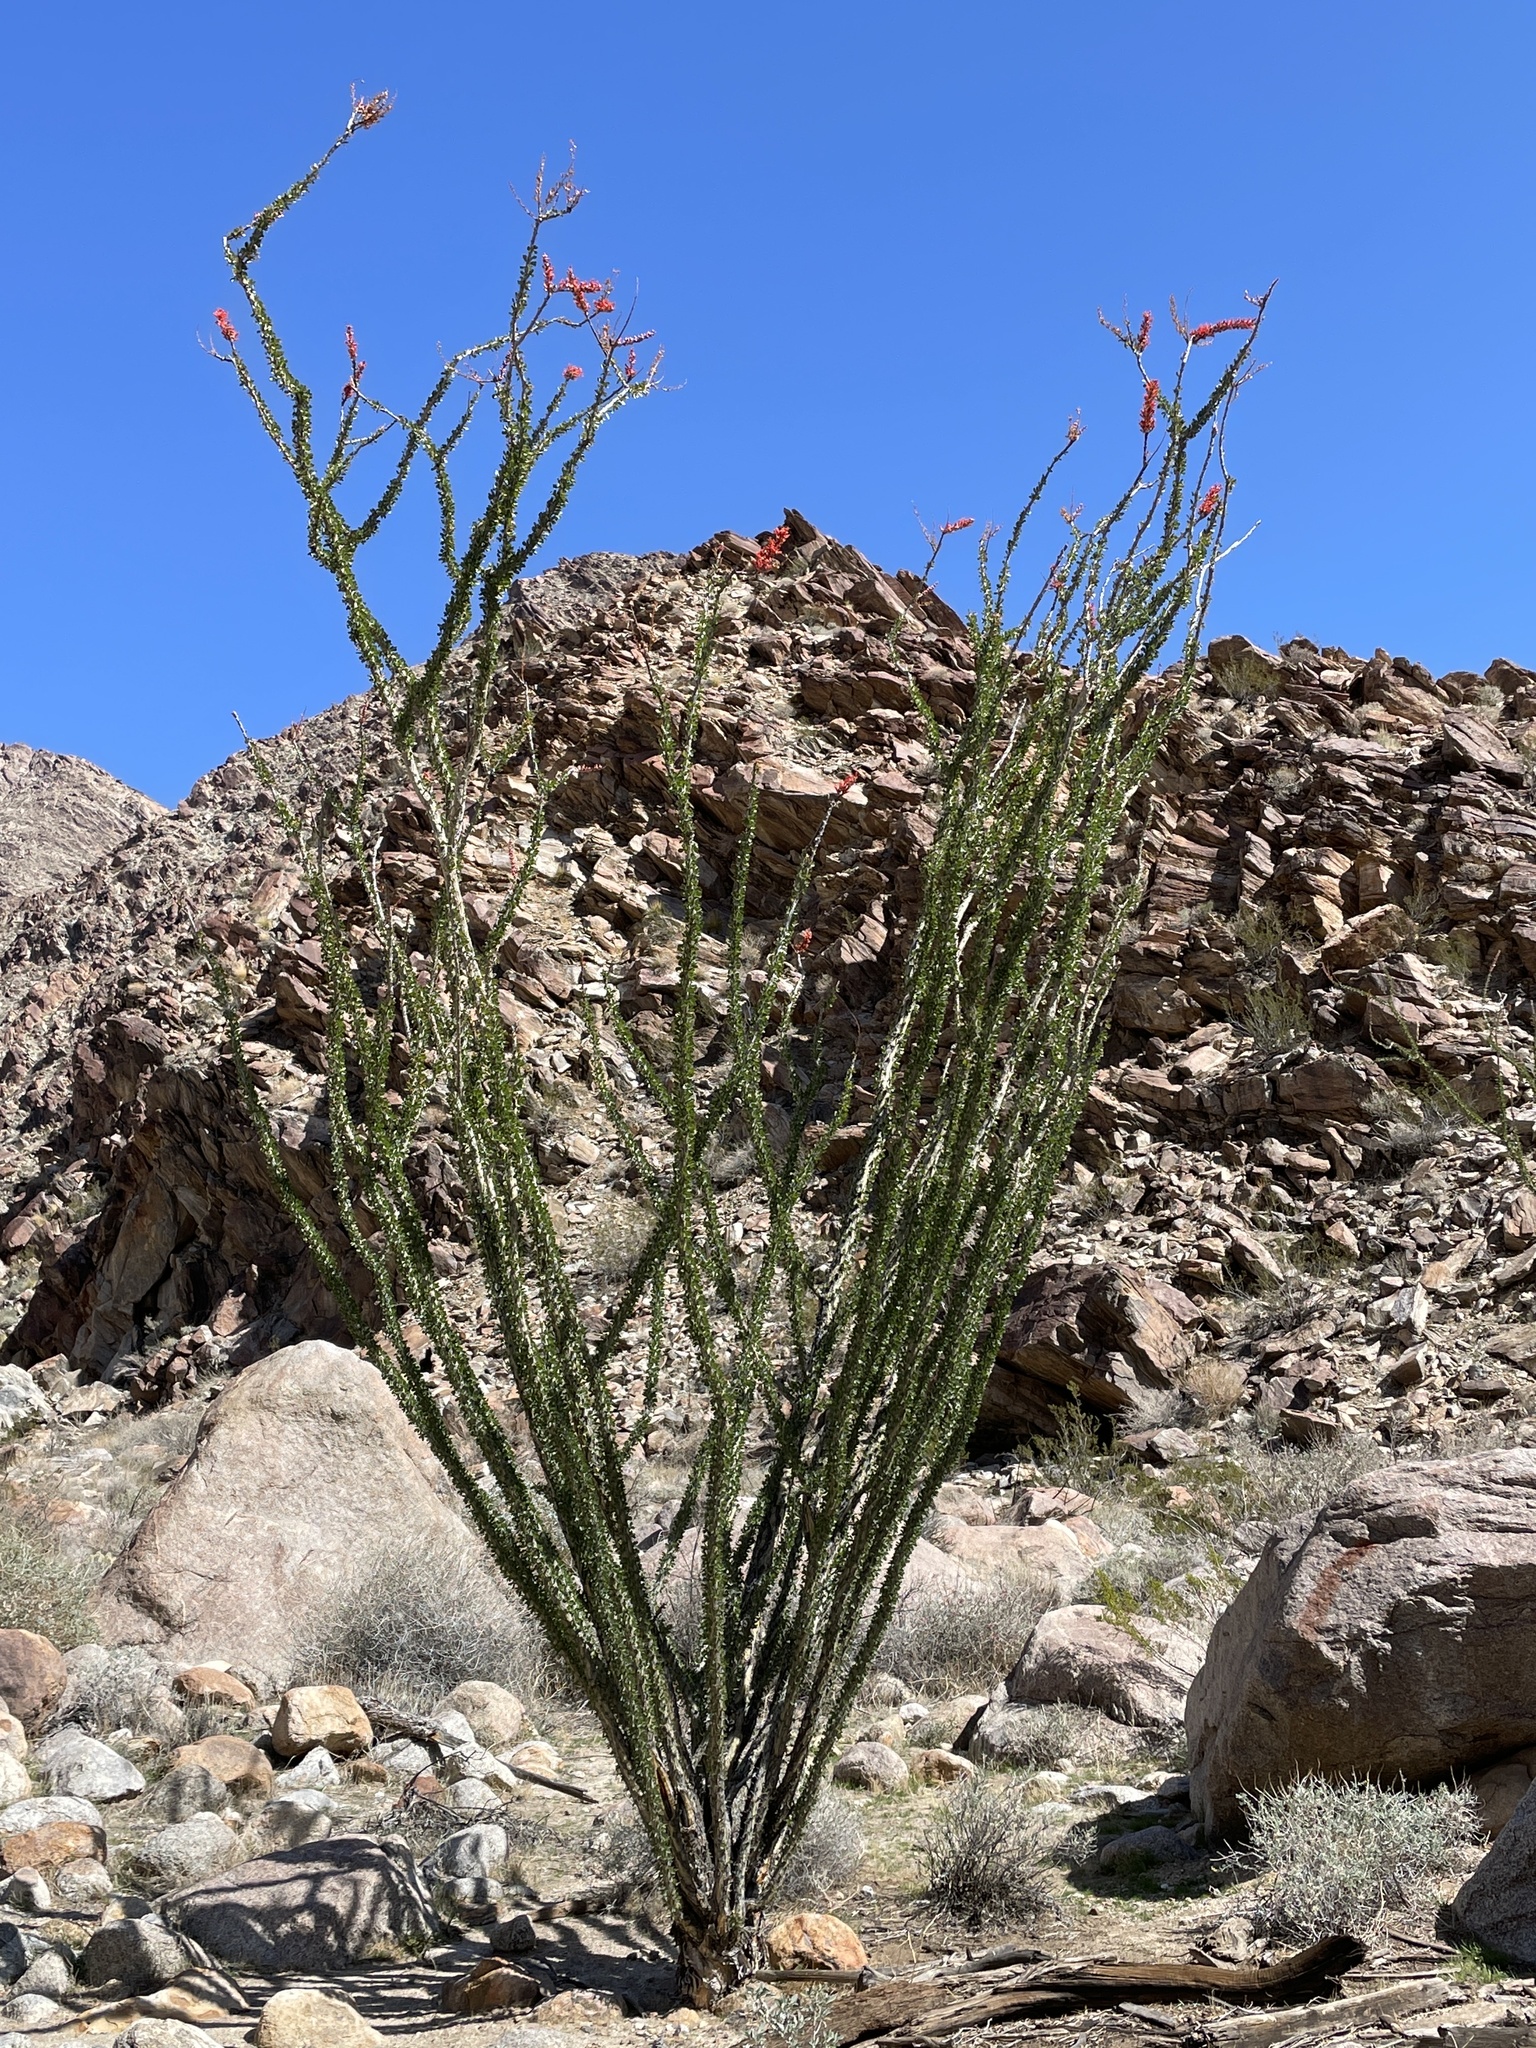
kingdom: Plantae
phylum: Tracheophyta
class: Magnoliopsida
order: Ericales
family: Fouquieriaceae
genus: Fouquieria
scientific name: Fouquieria splendens
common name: Vine-cactus
